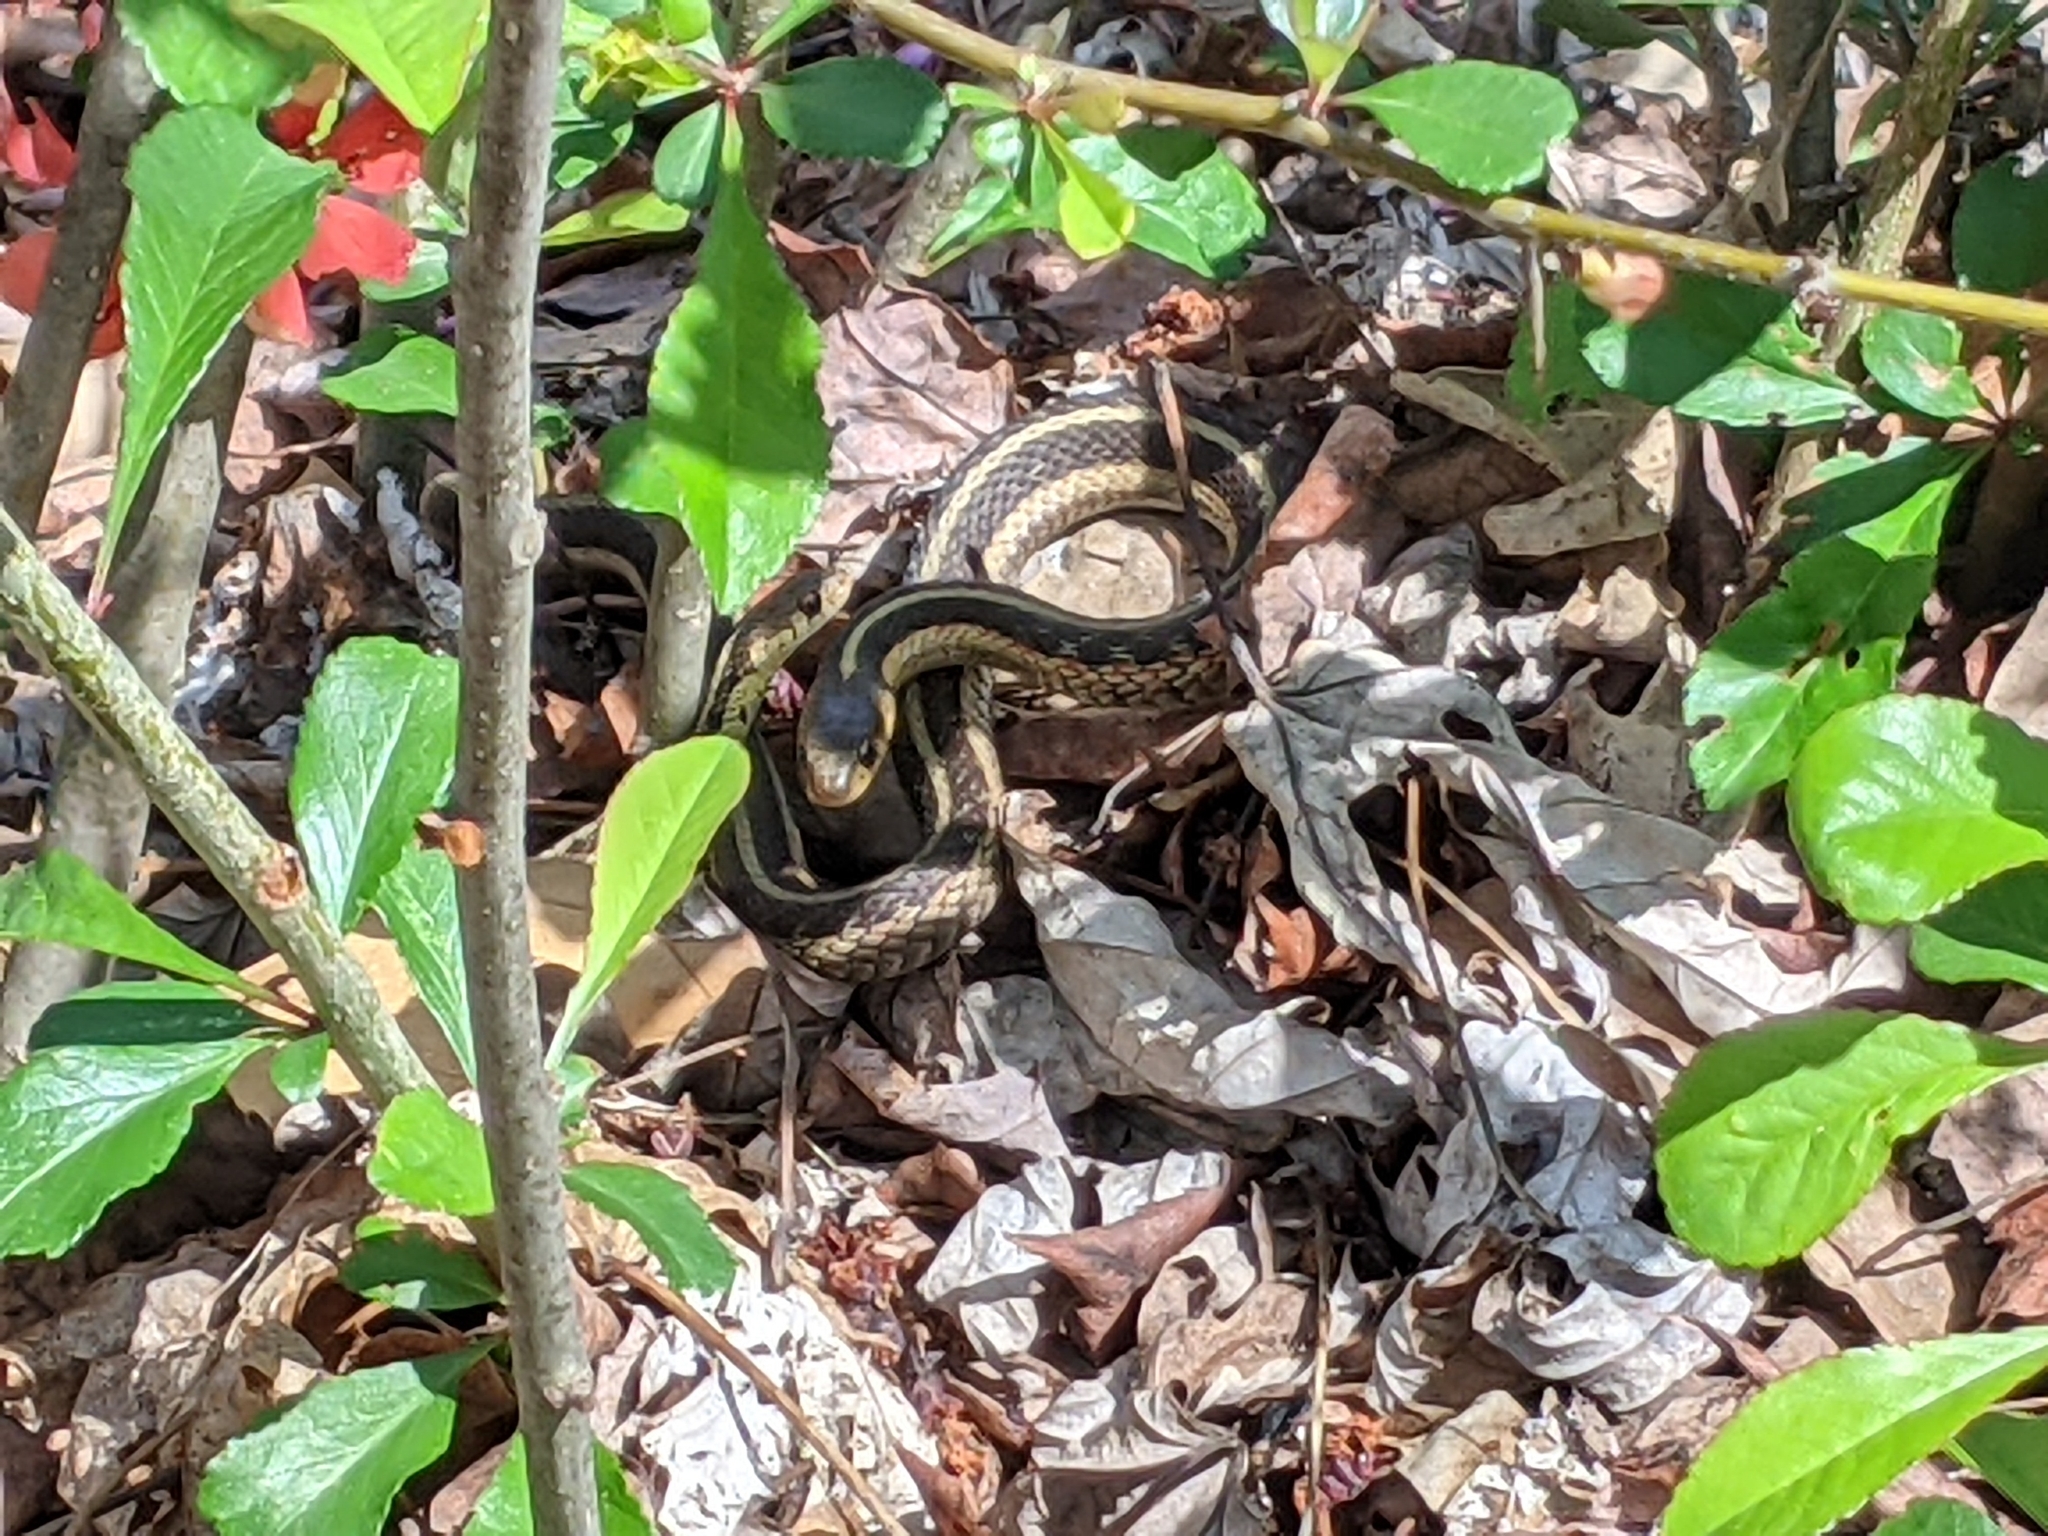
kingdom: Animalia
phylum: Chordata
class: Squamata
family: Colubridae
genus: Thamnophis
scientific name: Thamnophis sirtalis
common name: Common garter snake
